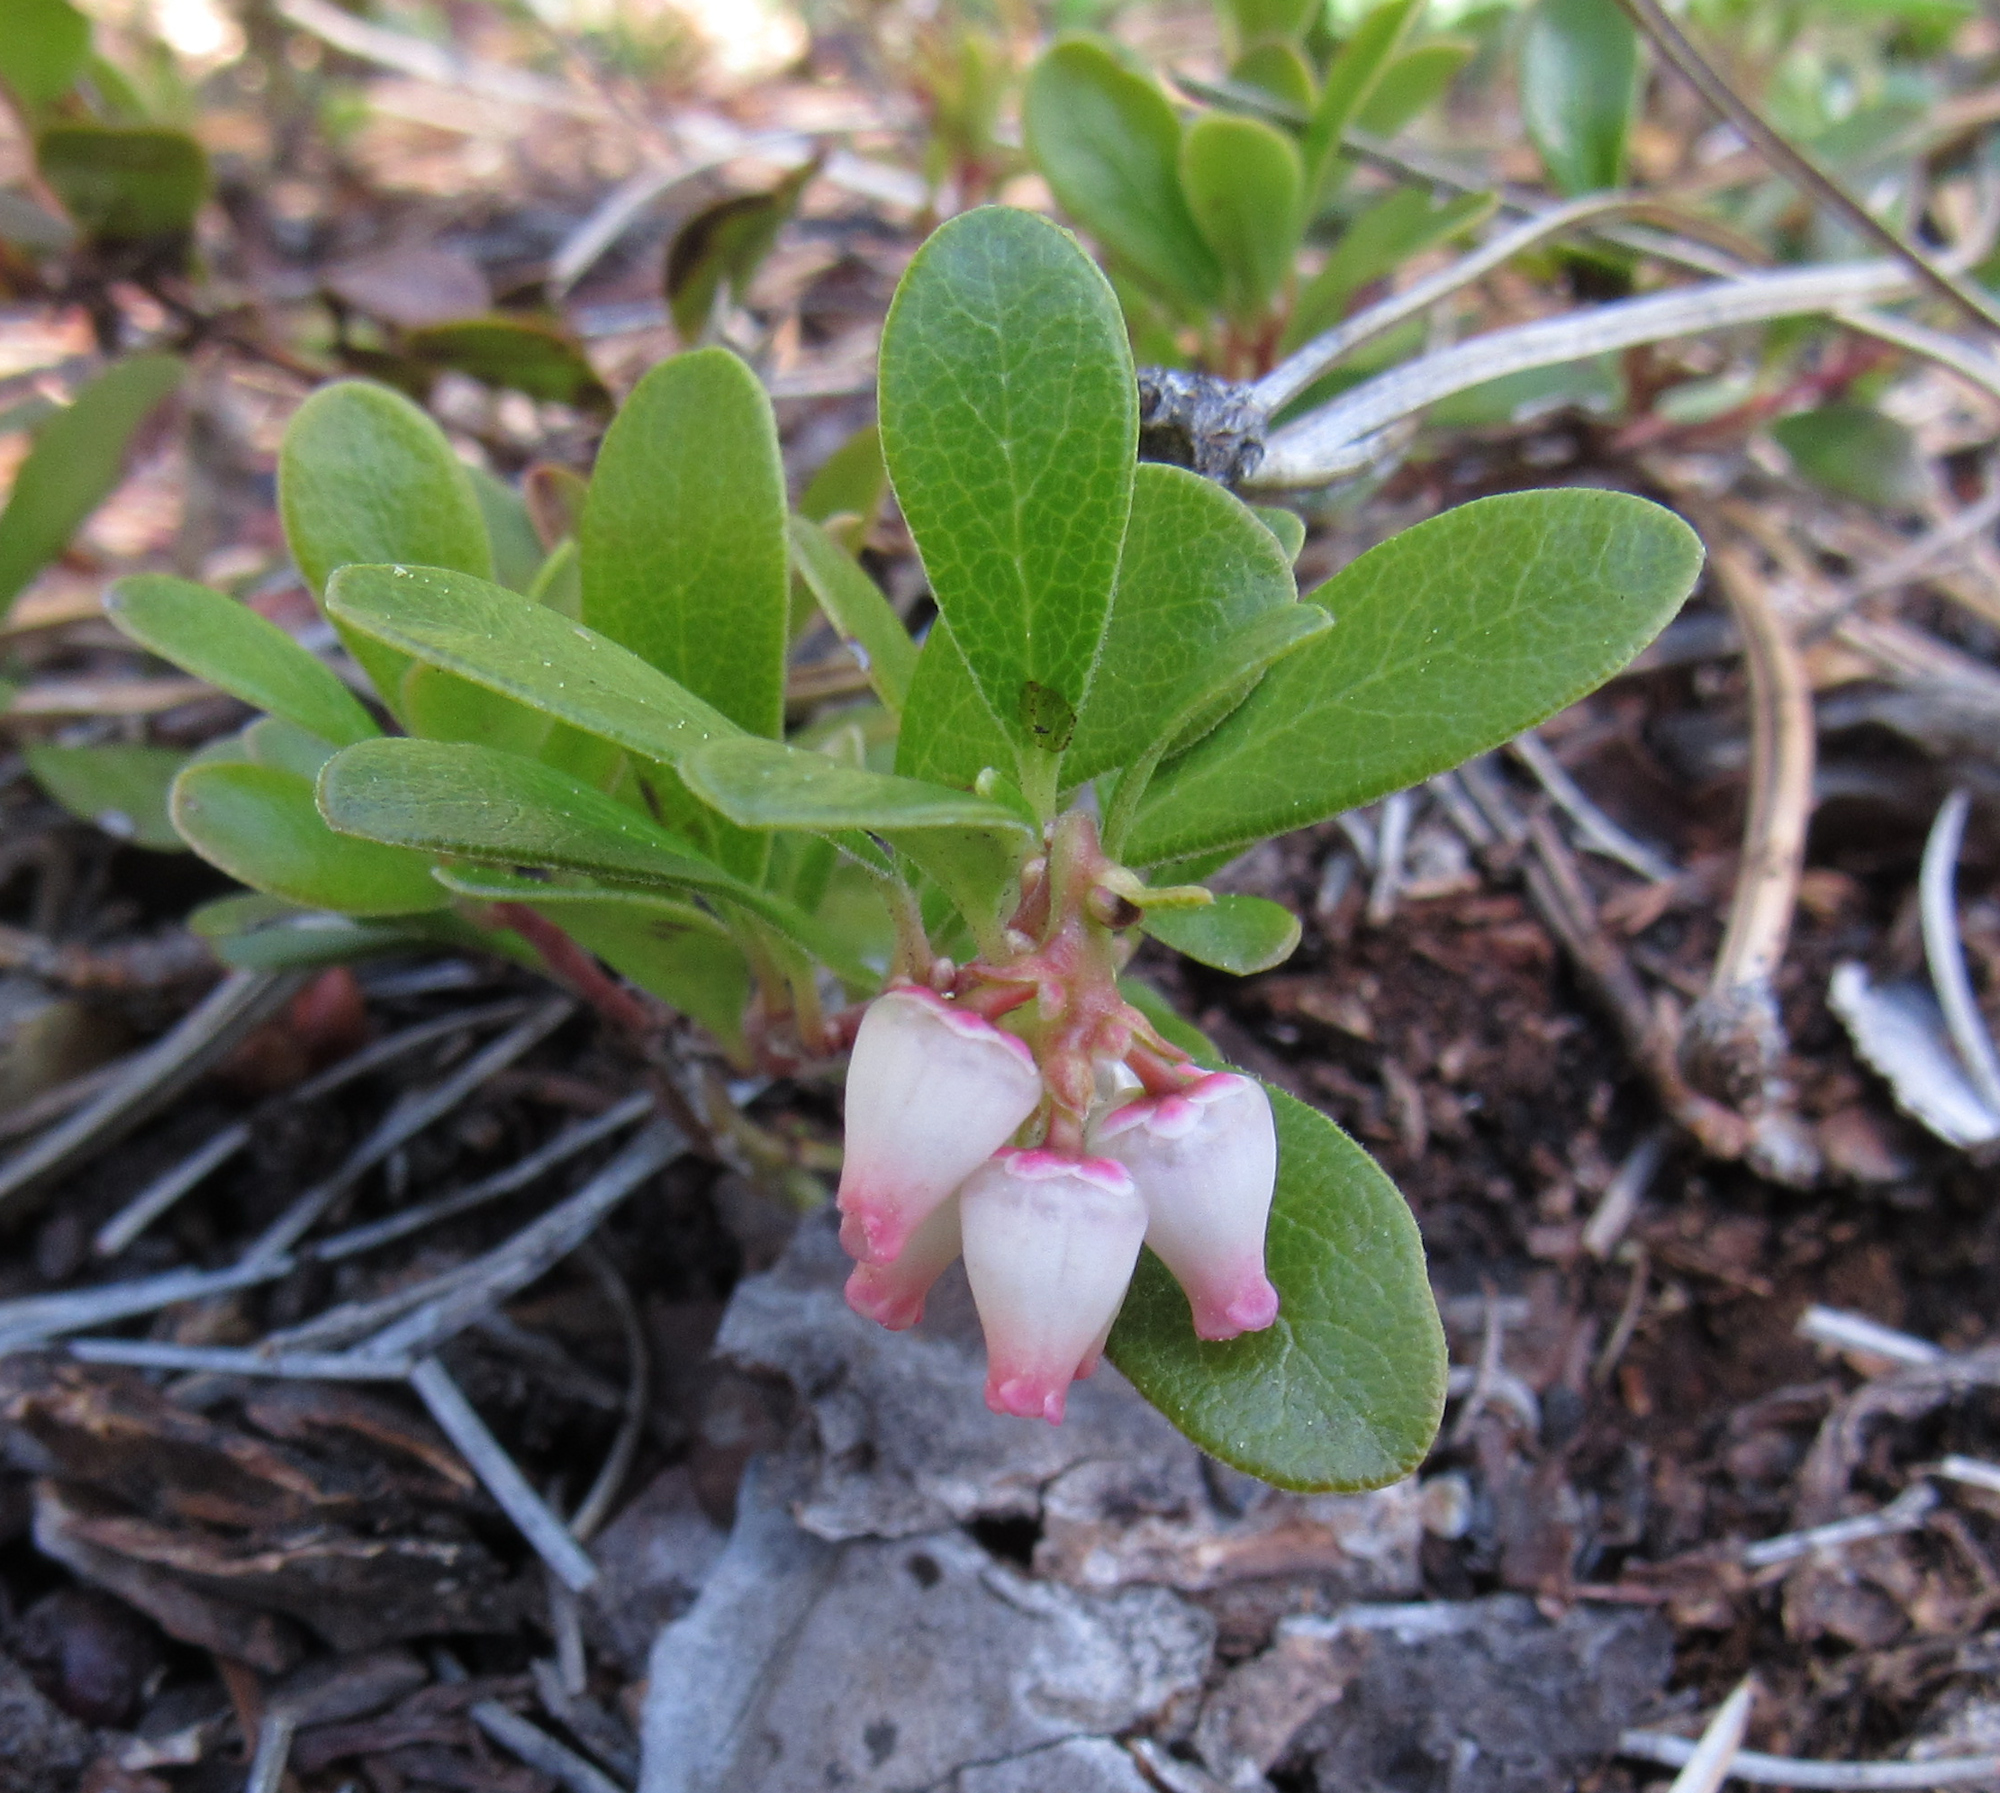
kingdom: Plantae
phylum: Tracheophyta
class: Magnoliopsida
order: Ericales
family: Ericaceae
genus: Arctostaphylos
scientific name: Arctostaphylos uva-ursi
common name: Bearberry
